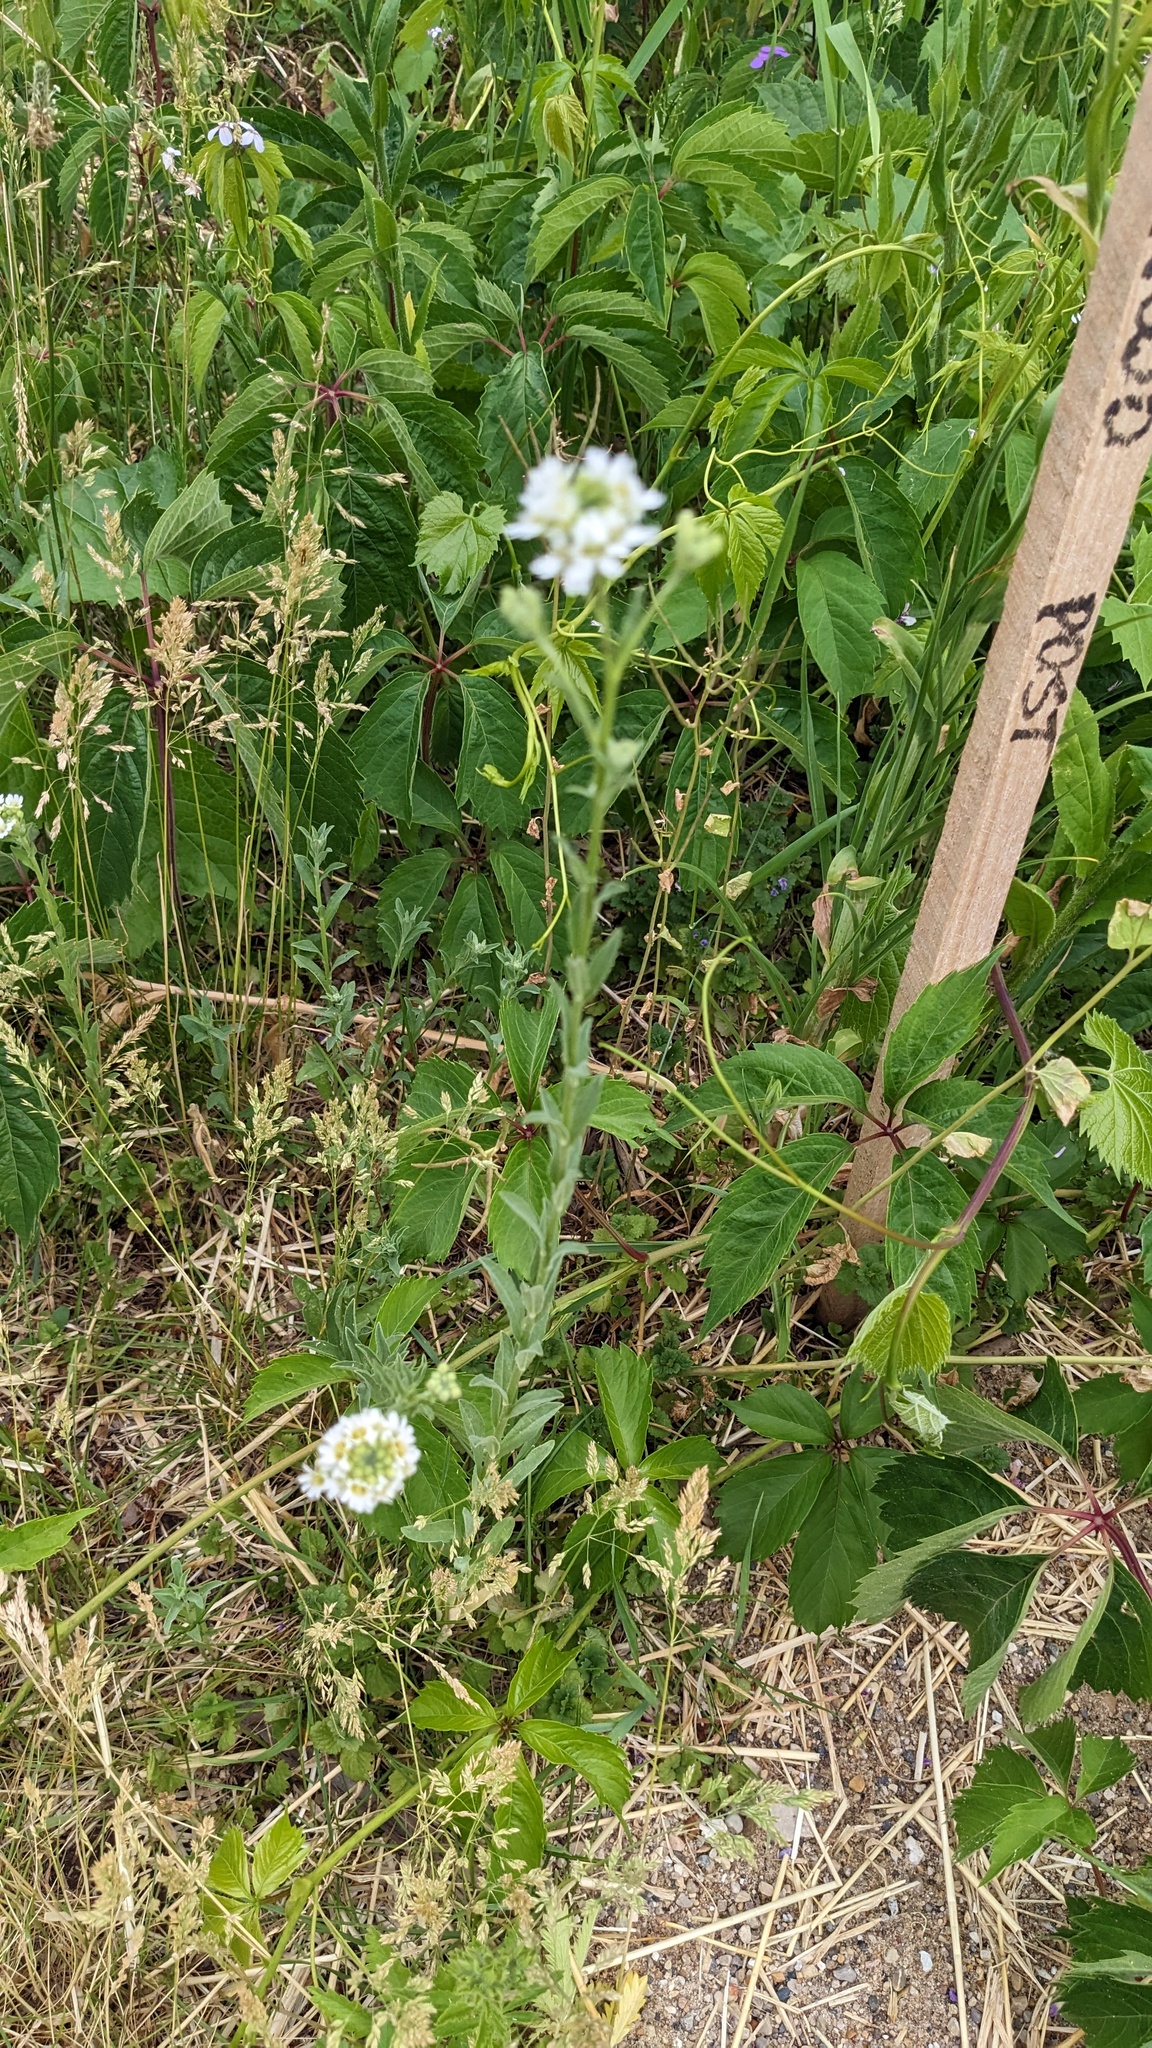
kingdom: Plantae
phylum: Tracheophyta
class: Magnoliopsida
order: Brassicales
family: Brassicaceae
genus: Berteroa
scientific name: Berteroa incana
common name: Hoary alison
